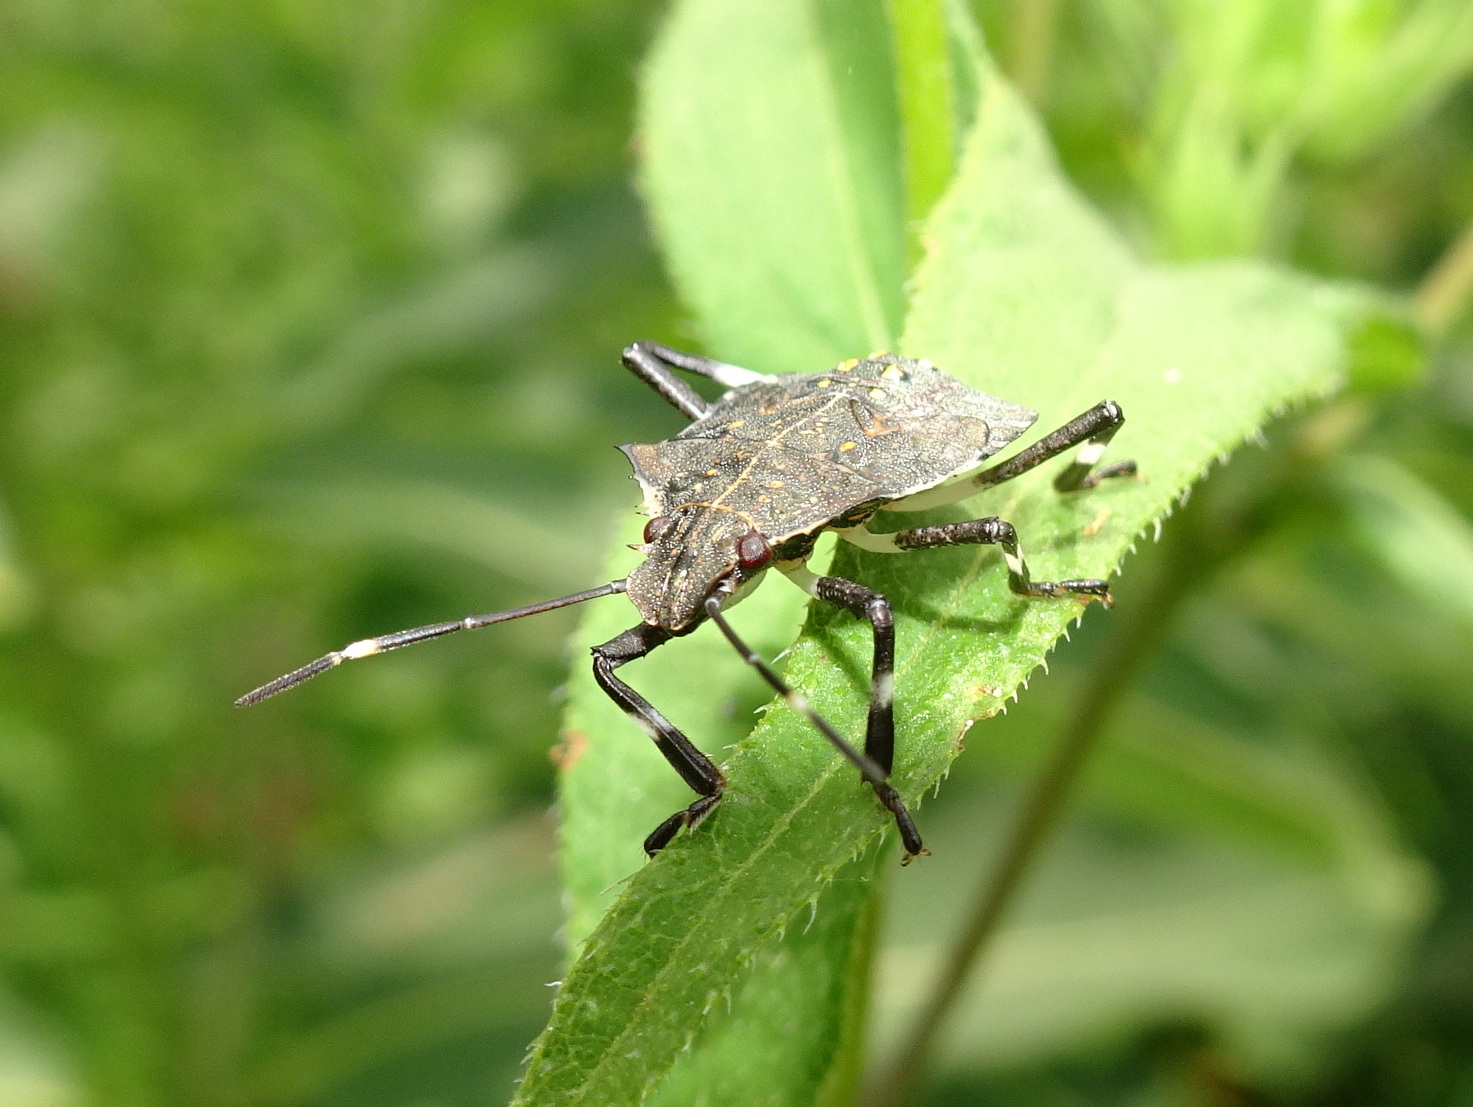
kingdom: Animalia
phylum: Arthropoda
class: Insecta
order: Hemiptera
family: Pentatomidae
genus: Halyomorpha
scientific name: Halyomorpha halys
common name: Brown marmorated stink bug
